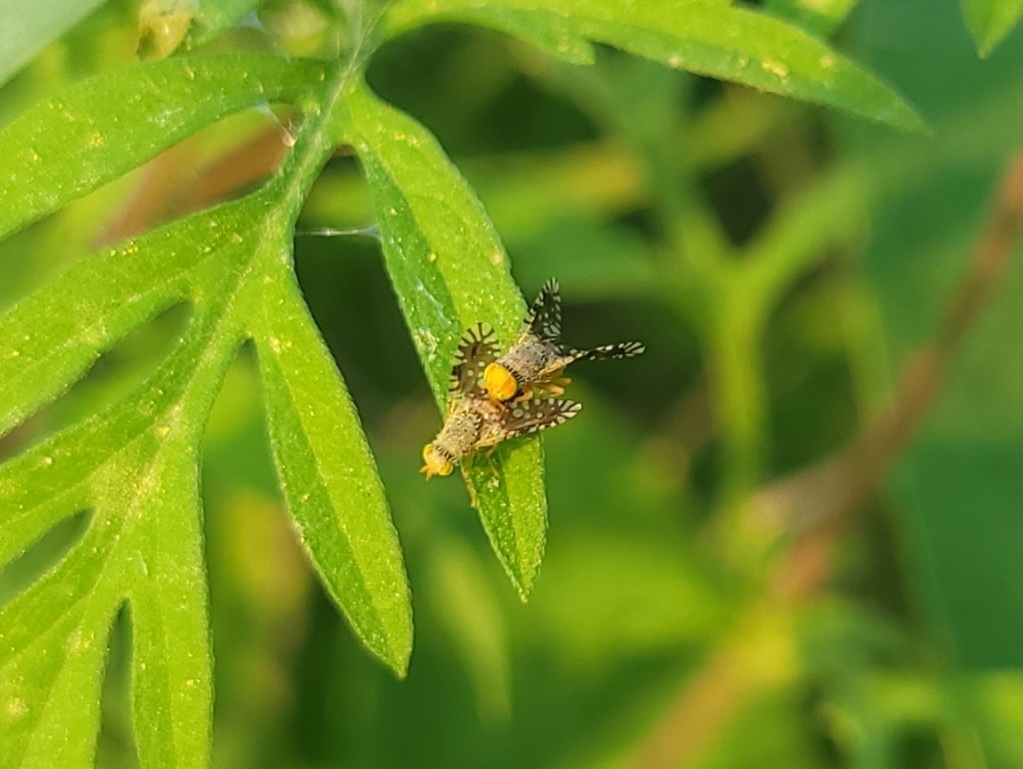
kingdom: Animalia
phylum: Arthropoda
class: Insecta
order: Diptera
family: Tephritidae
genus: Euaresta
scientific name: Euaresta bella
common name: Common ragweed fruit fly
